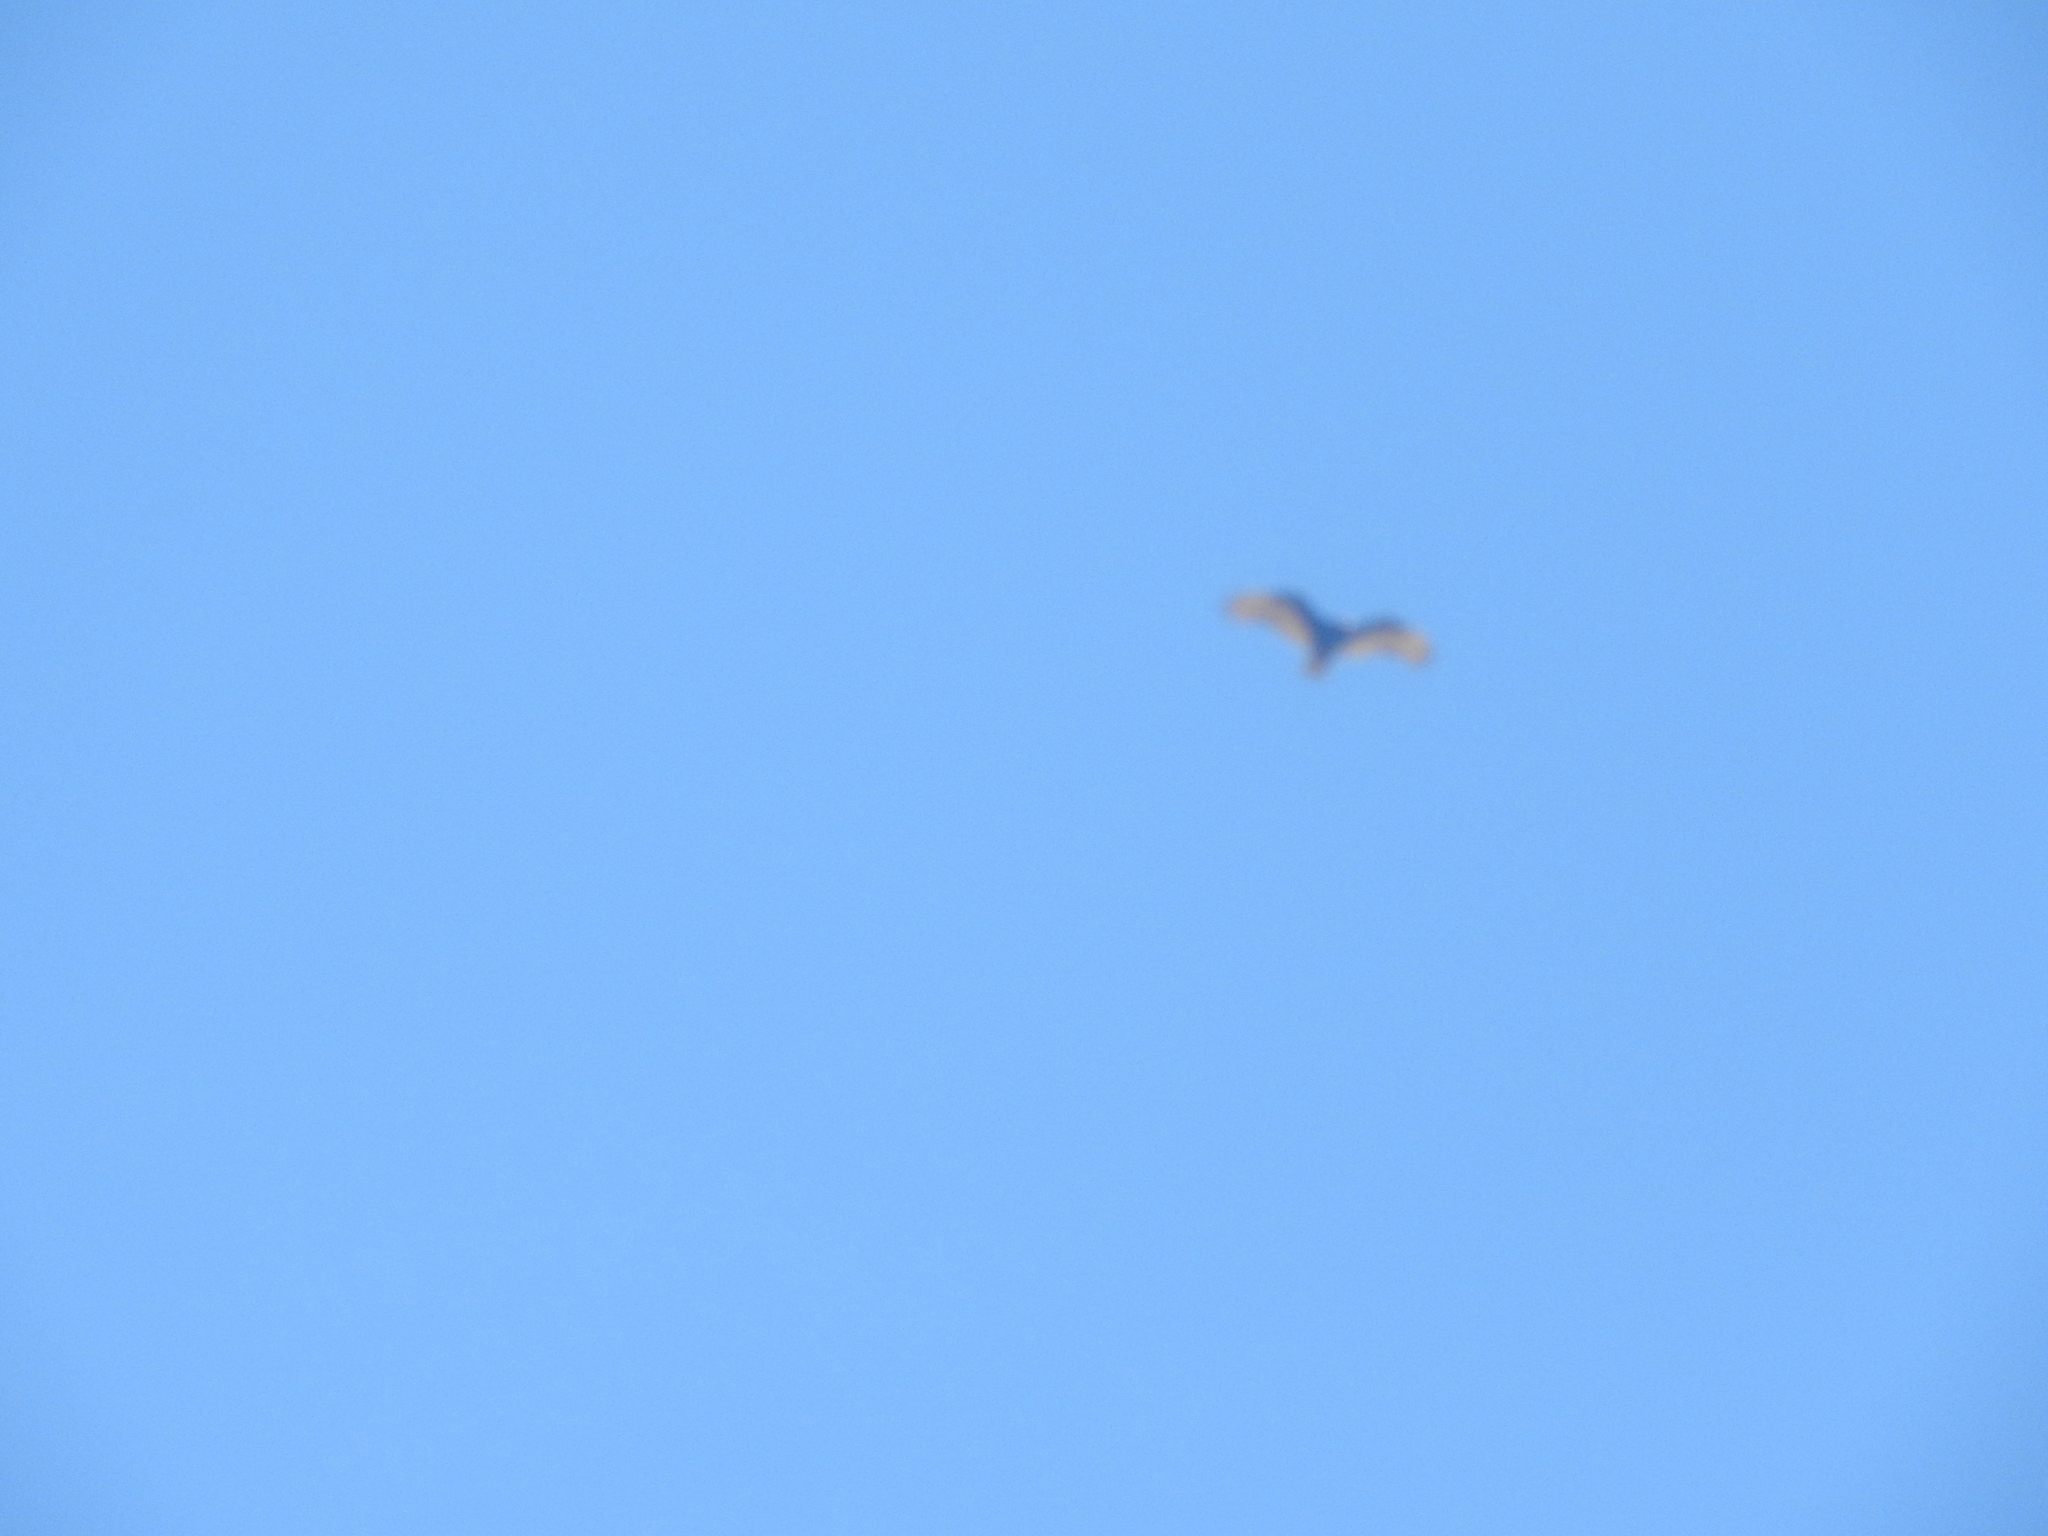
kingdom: Animalia
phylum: Chordata
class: Aves
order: Accipitriformes
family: Cathartidae
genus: Cathartes
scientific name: Cathartes aura
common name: Turkey vulture
